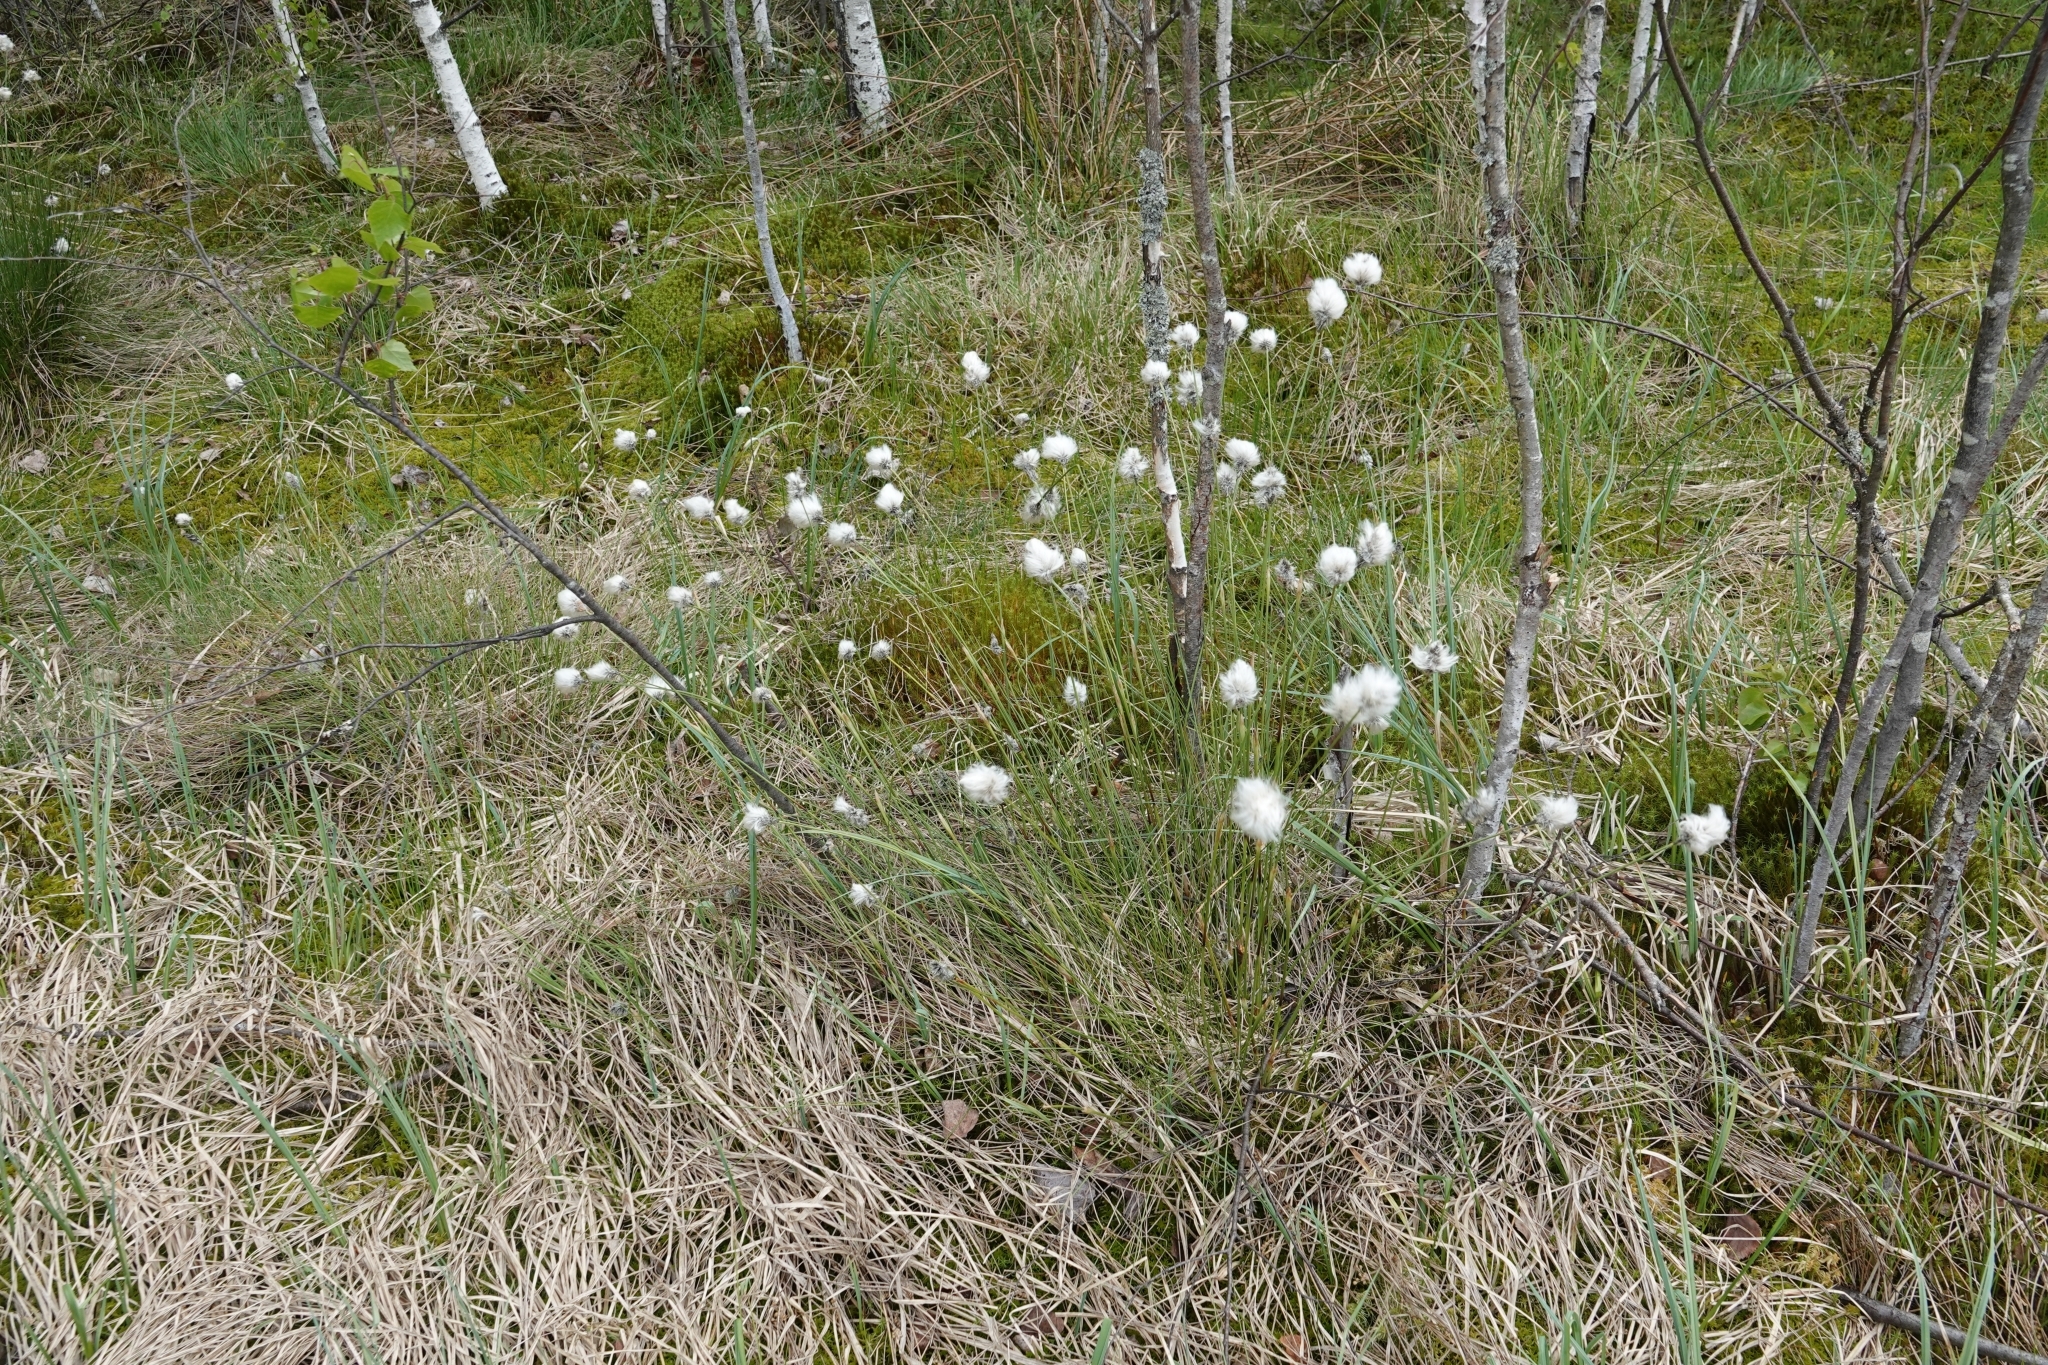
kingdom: Plantae
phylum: Tracheophyta
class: Liliopsida
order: Poales
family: Cyperaceae
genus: Eriophorum
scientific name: Eriophorum vaginatum
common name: Hare's-tail cottongrass
